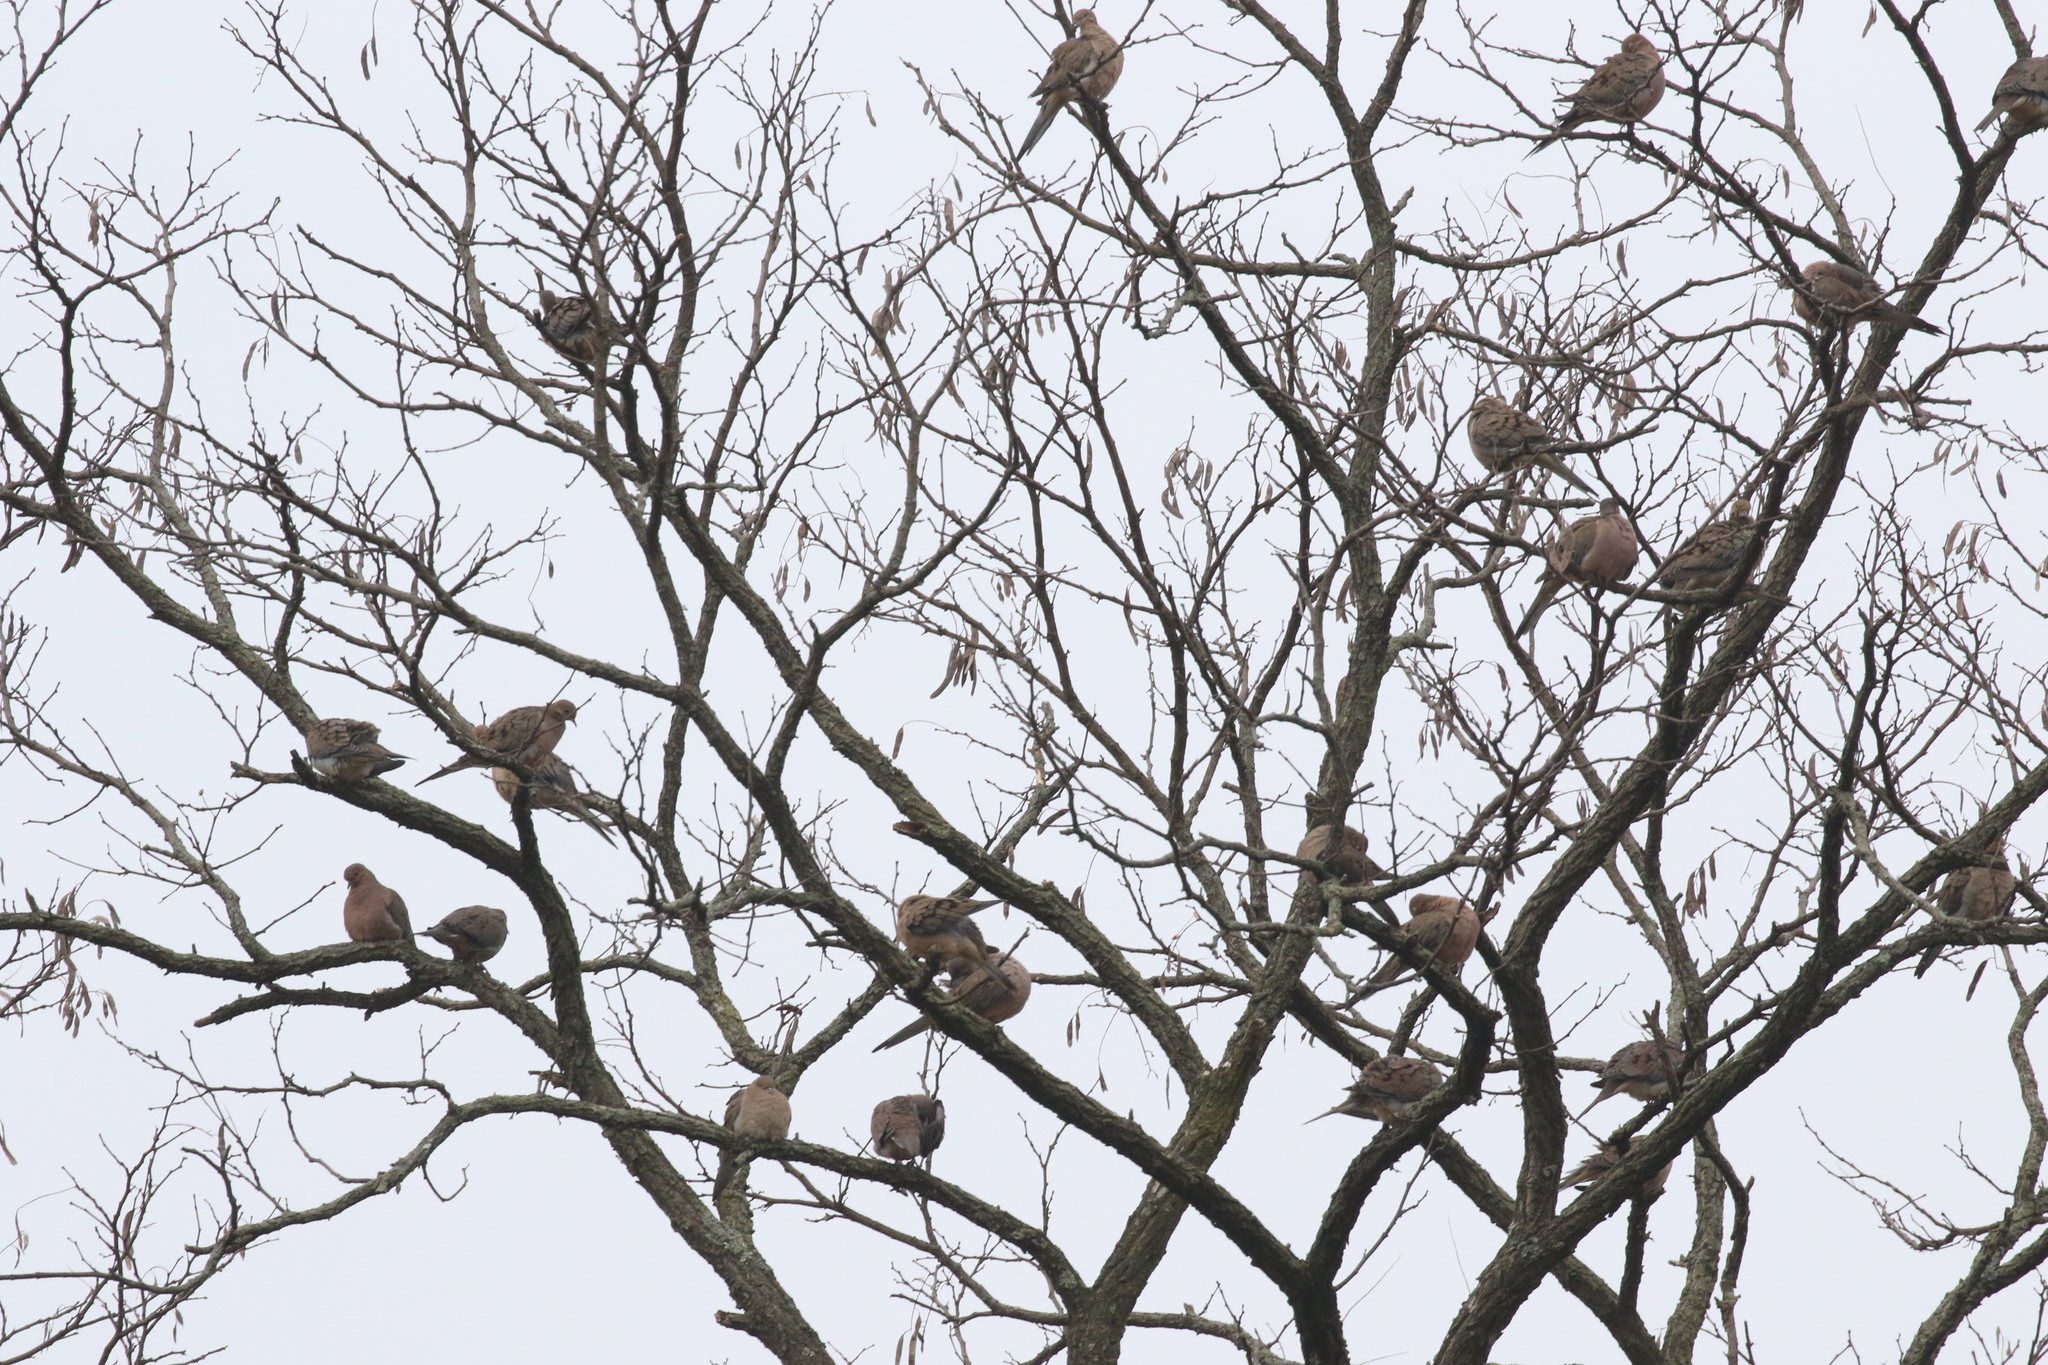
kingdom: Animalia
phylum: Chordata
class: Aves
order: Columbiformes
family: Columbidae
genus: Zenaida
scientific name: Zenaida macroura
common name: Mourning dove
